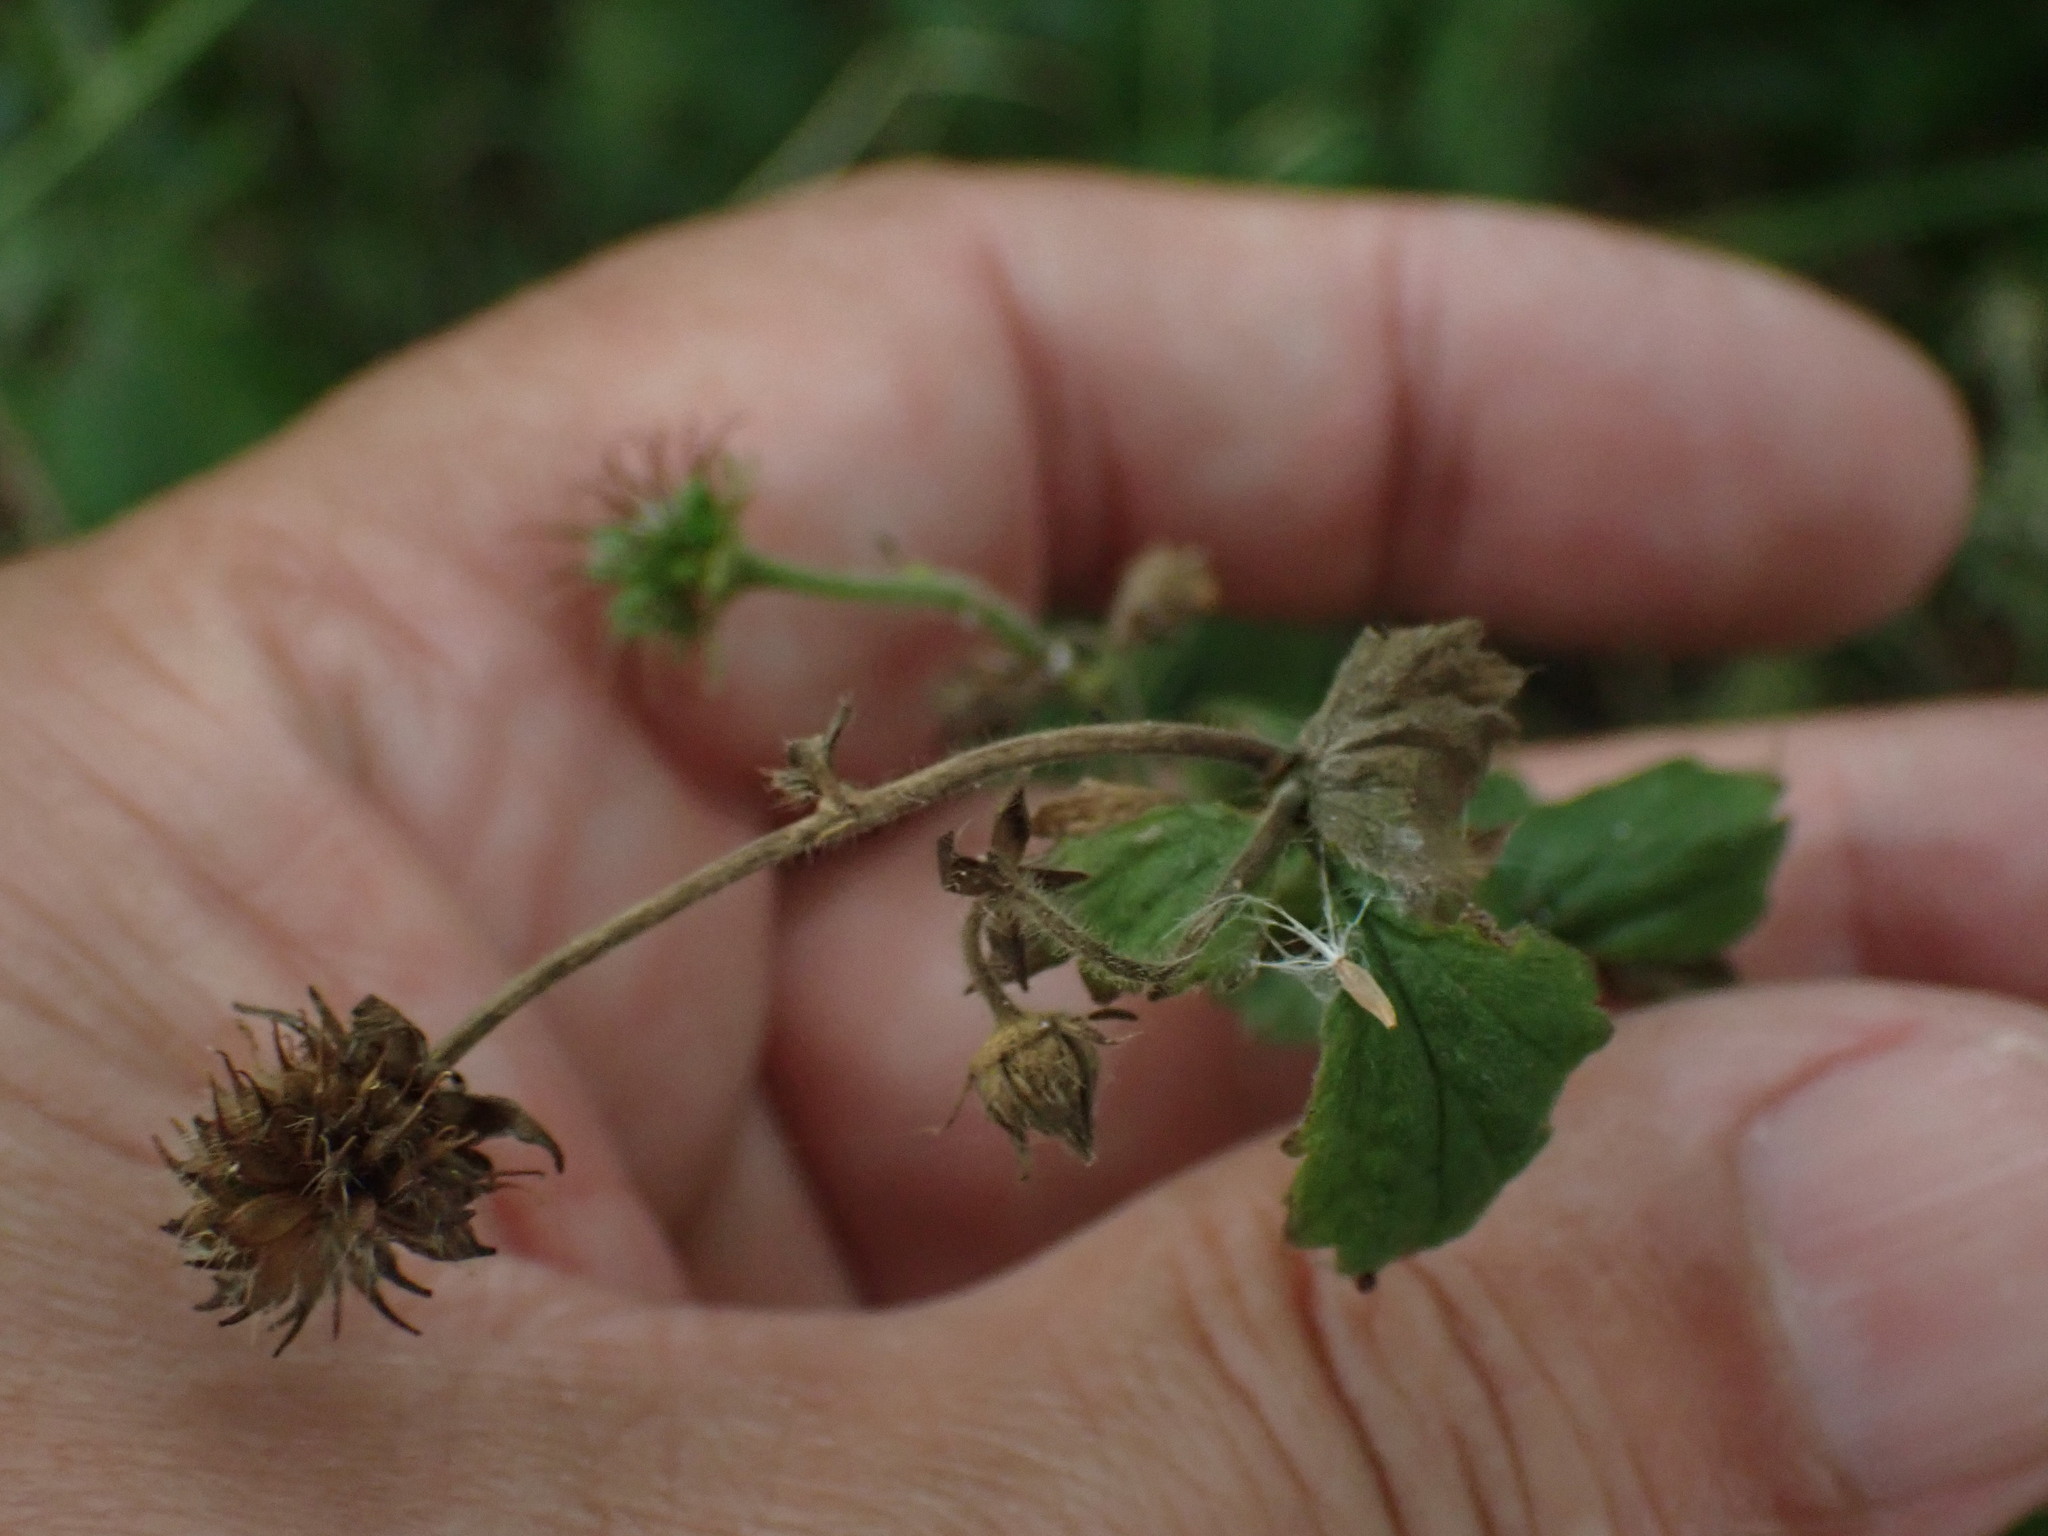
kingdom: Plantae
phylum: Tracheophyta
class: Magnoliopsida
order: Rosales
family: Rosaceae
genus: Geum
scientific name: Geum urbanum
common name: Wood avens
